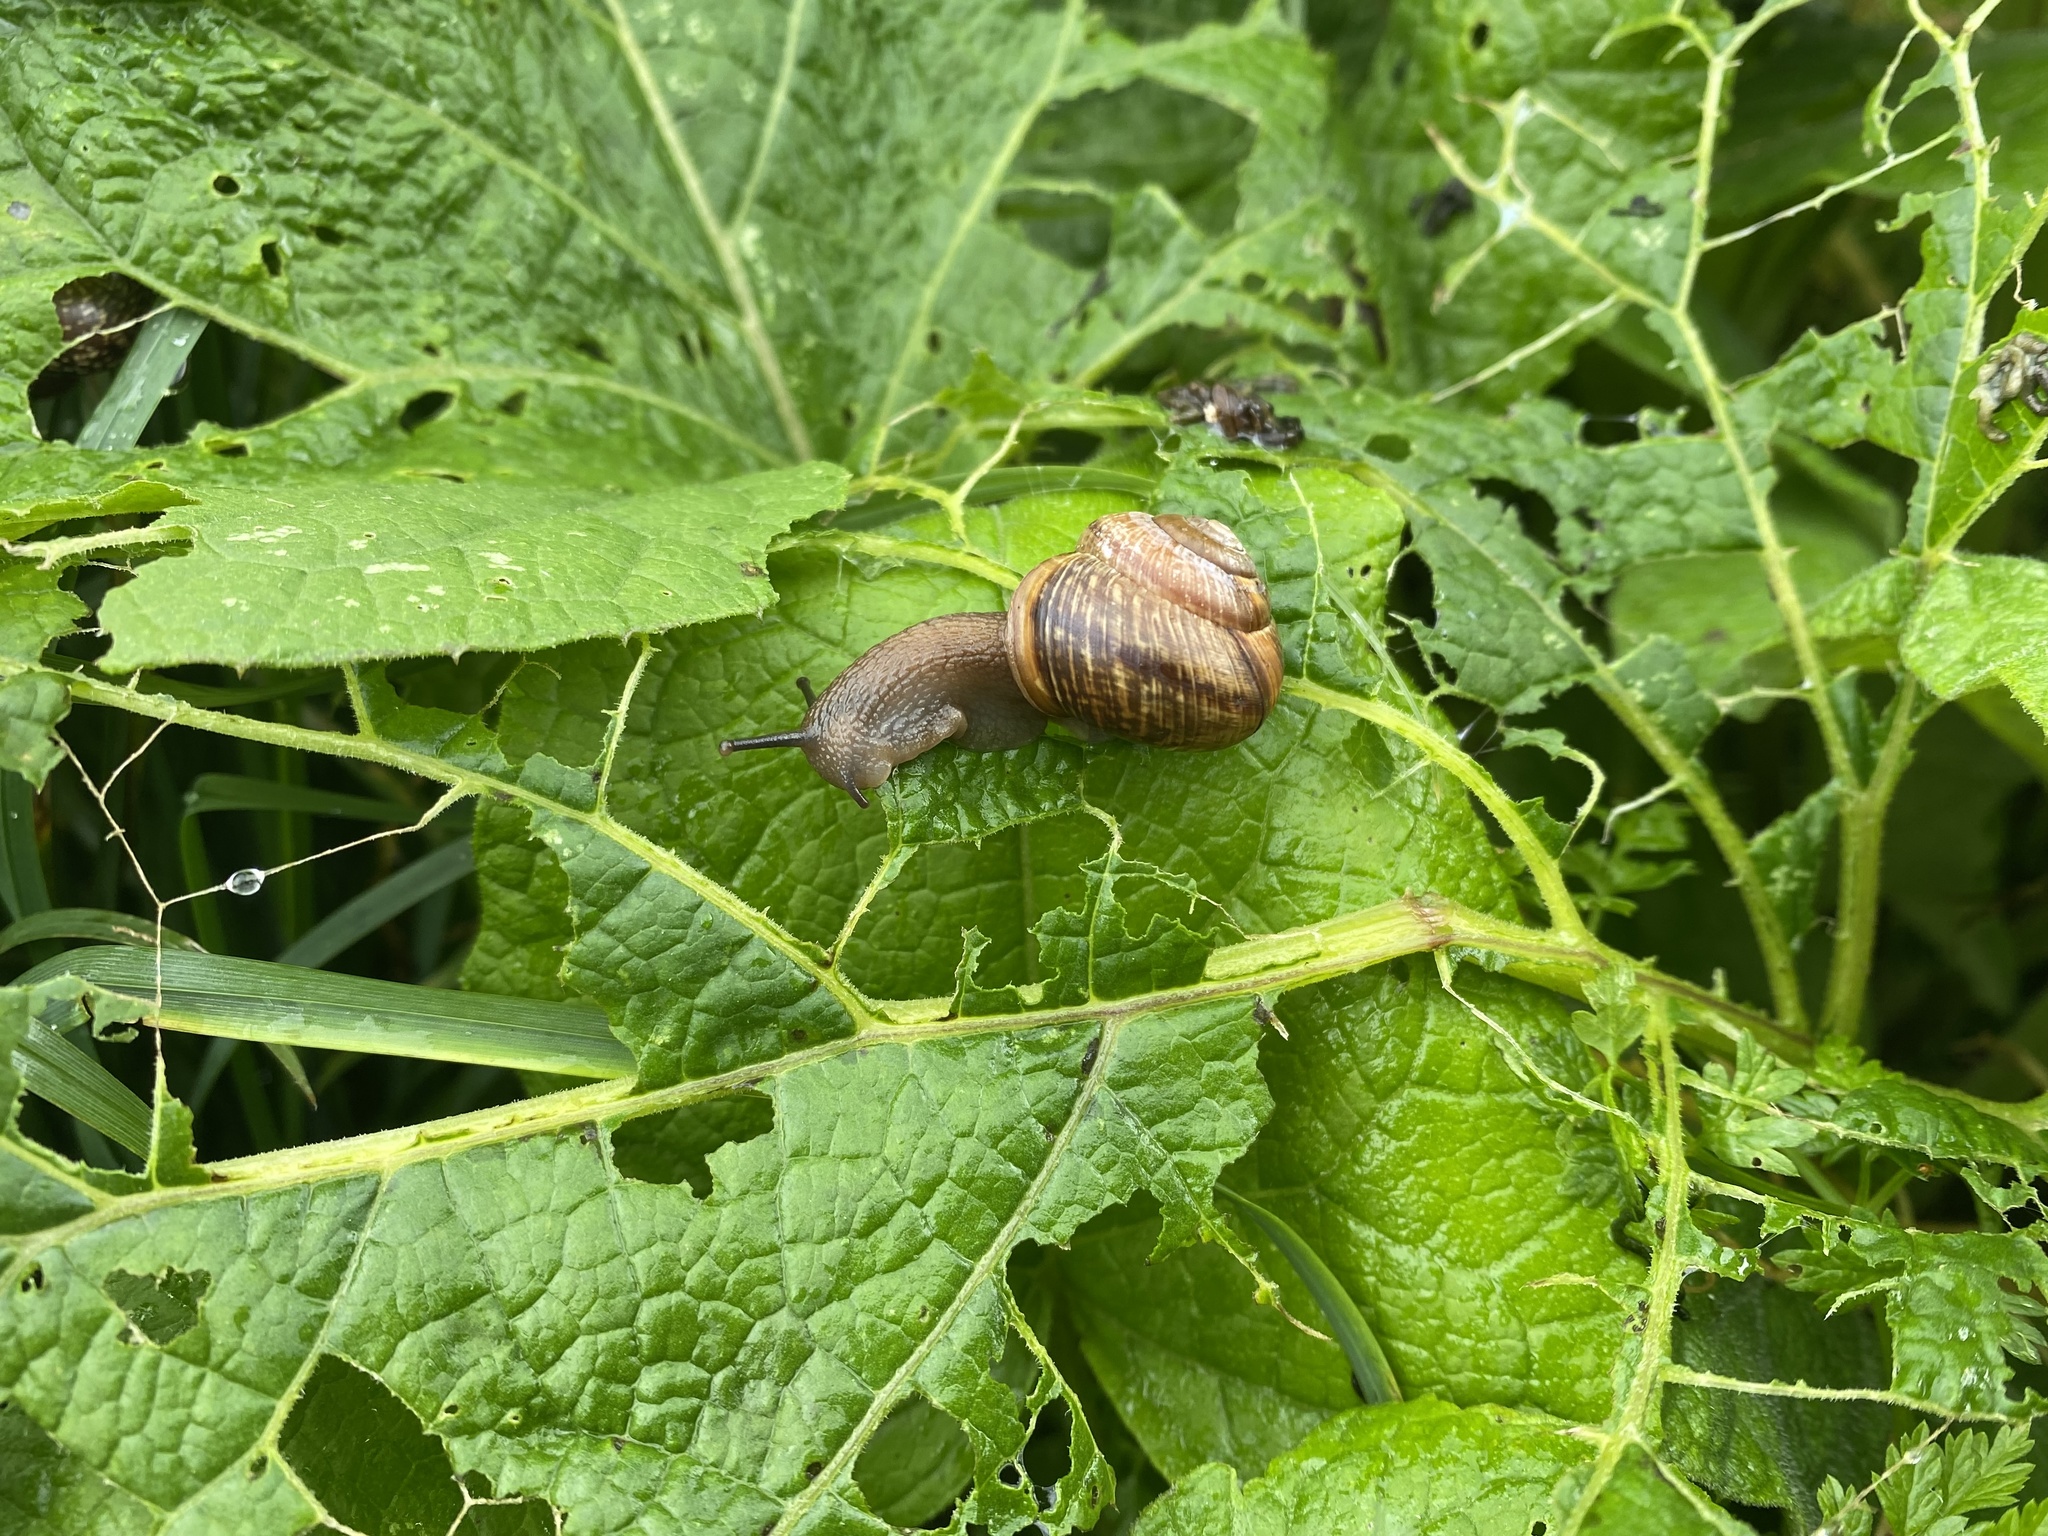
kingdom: Animalia
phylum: Mollusca
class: Gastropoda
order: Stylommatophora
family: Helicidae
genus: Arianta
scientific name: Arianta arbustorum
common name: Copse snail
